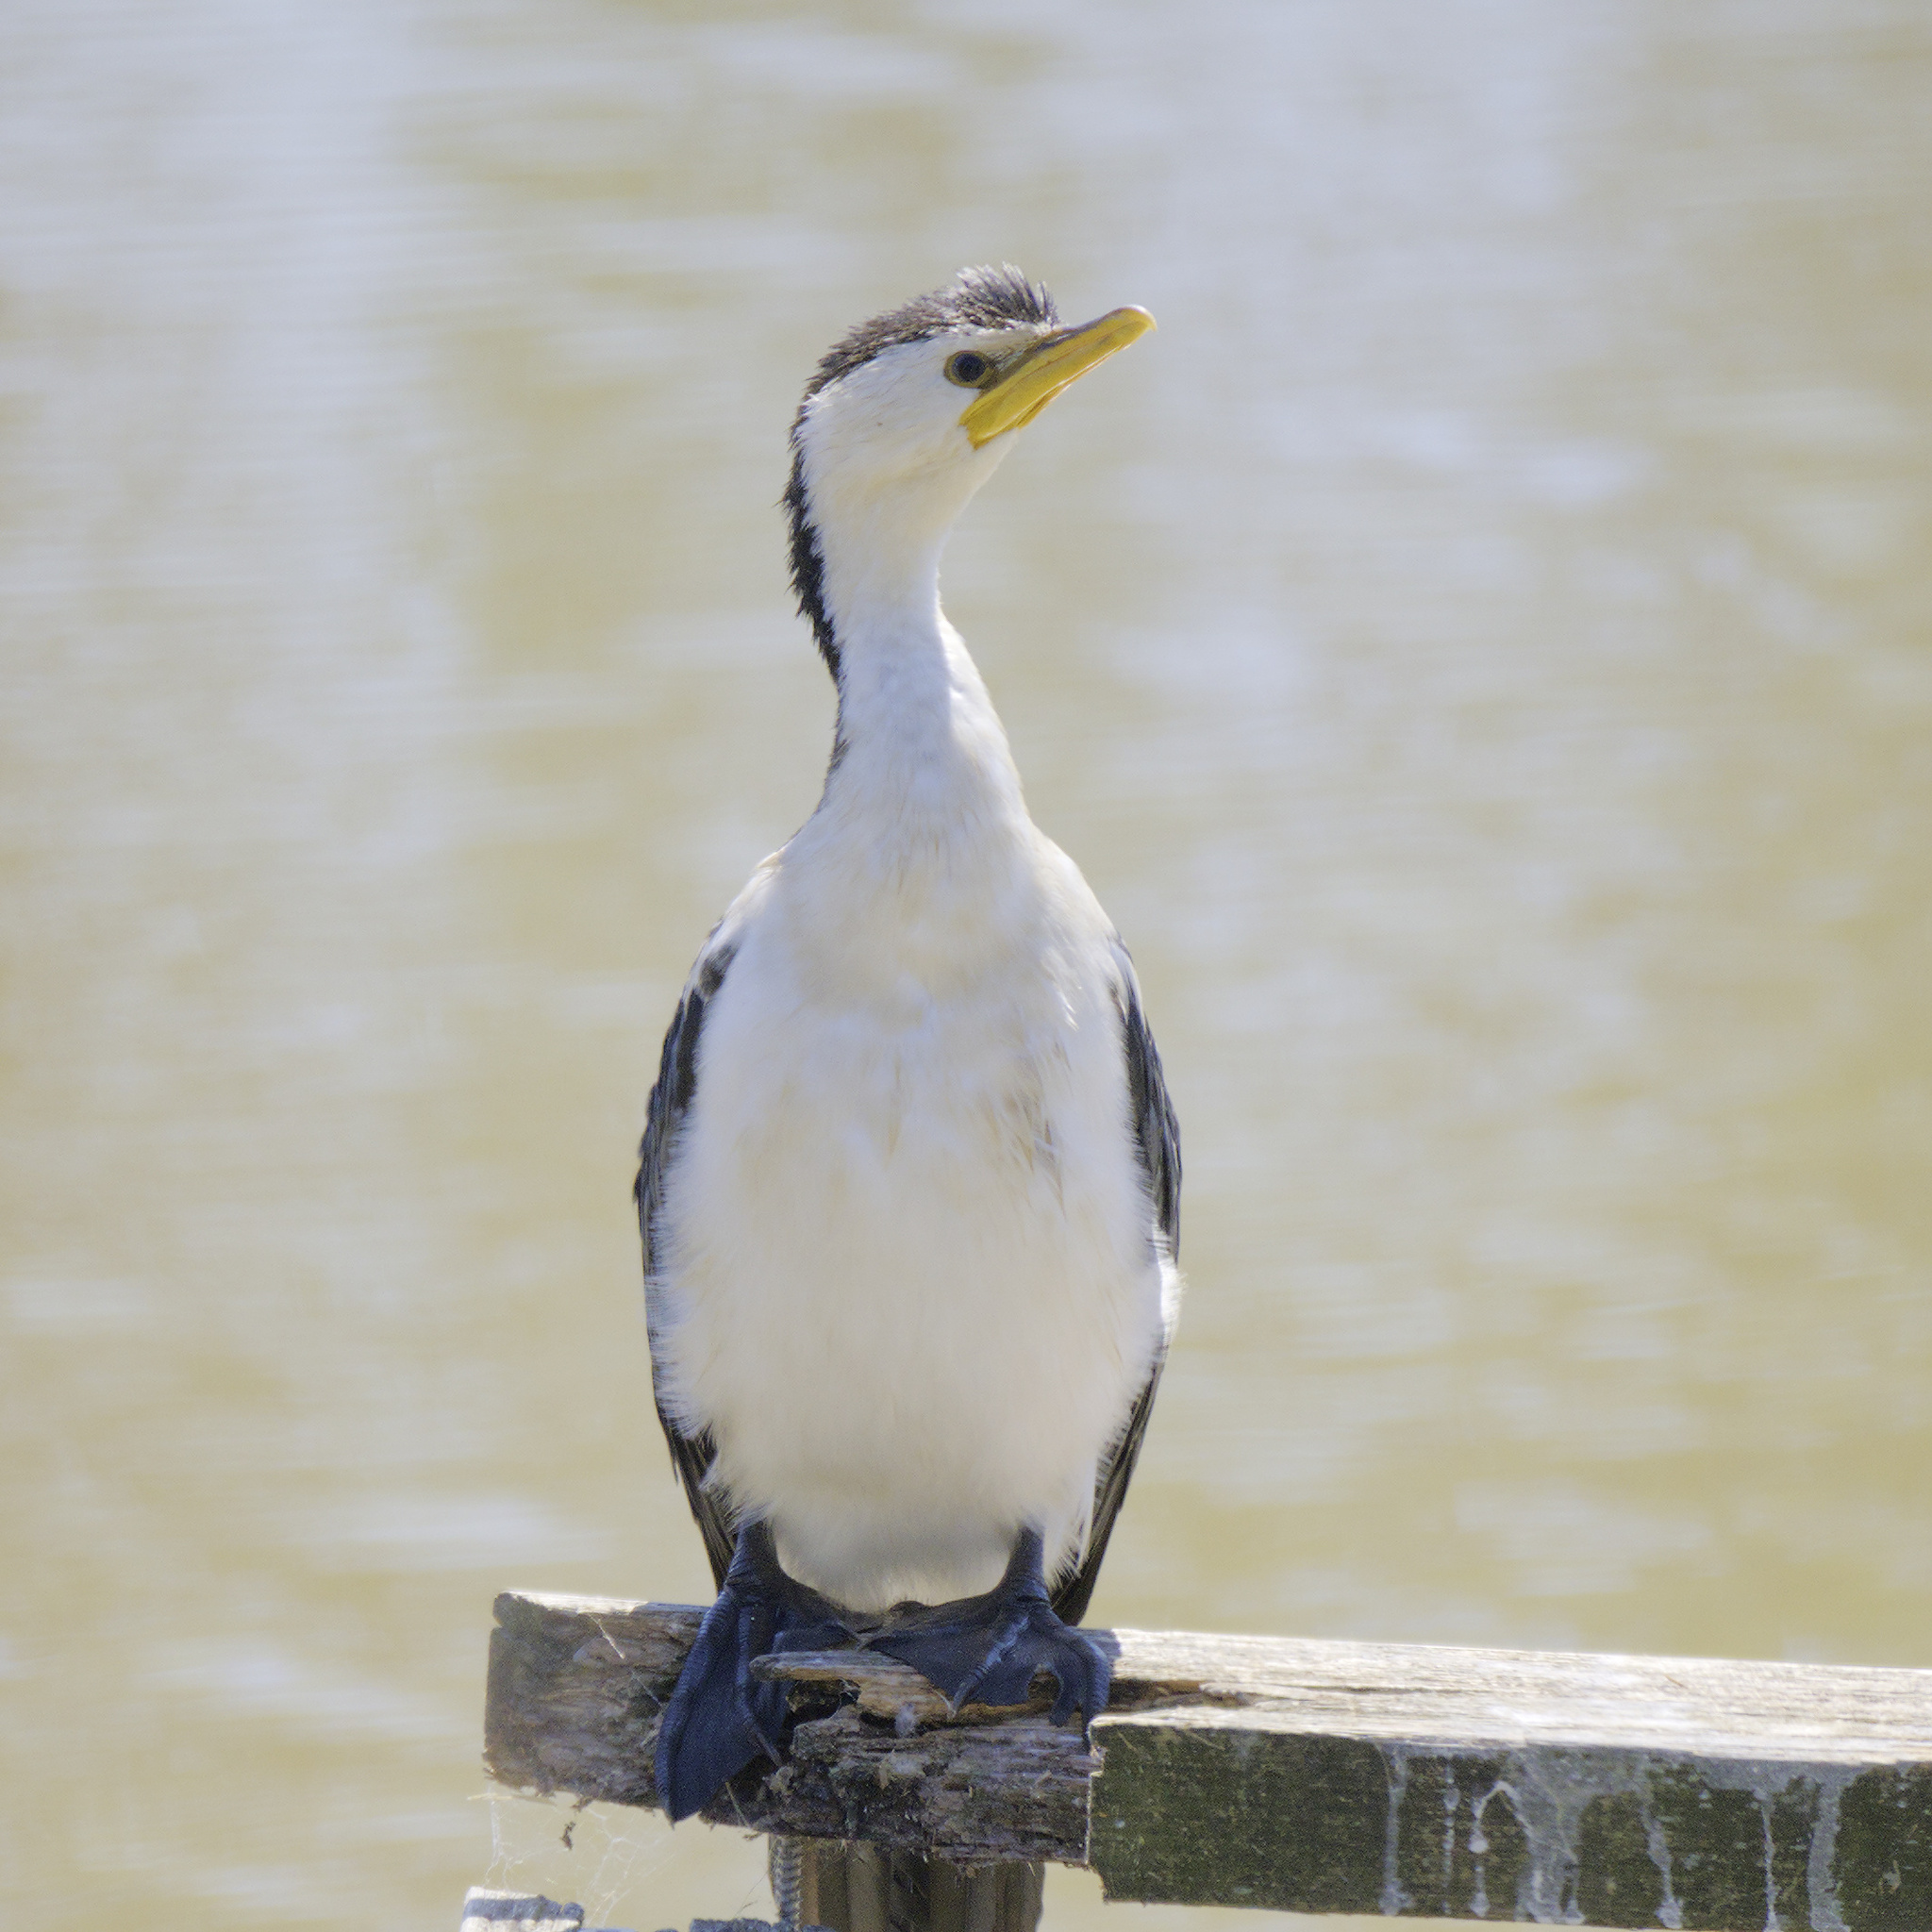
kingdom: Animalia
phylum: Chordata
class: Aves
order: Suliformes
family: Phalacrocoracidae
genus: Microcarbo
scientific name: Microcarbo melanoleucos
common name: Little pied cormorant
